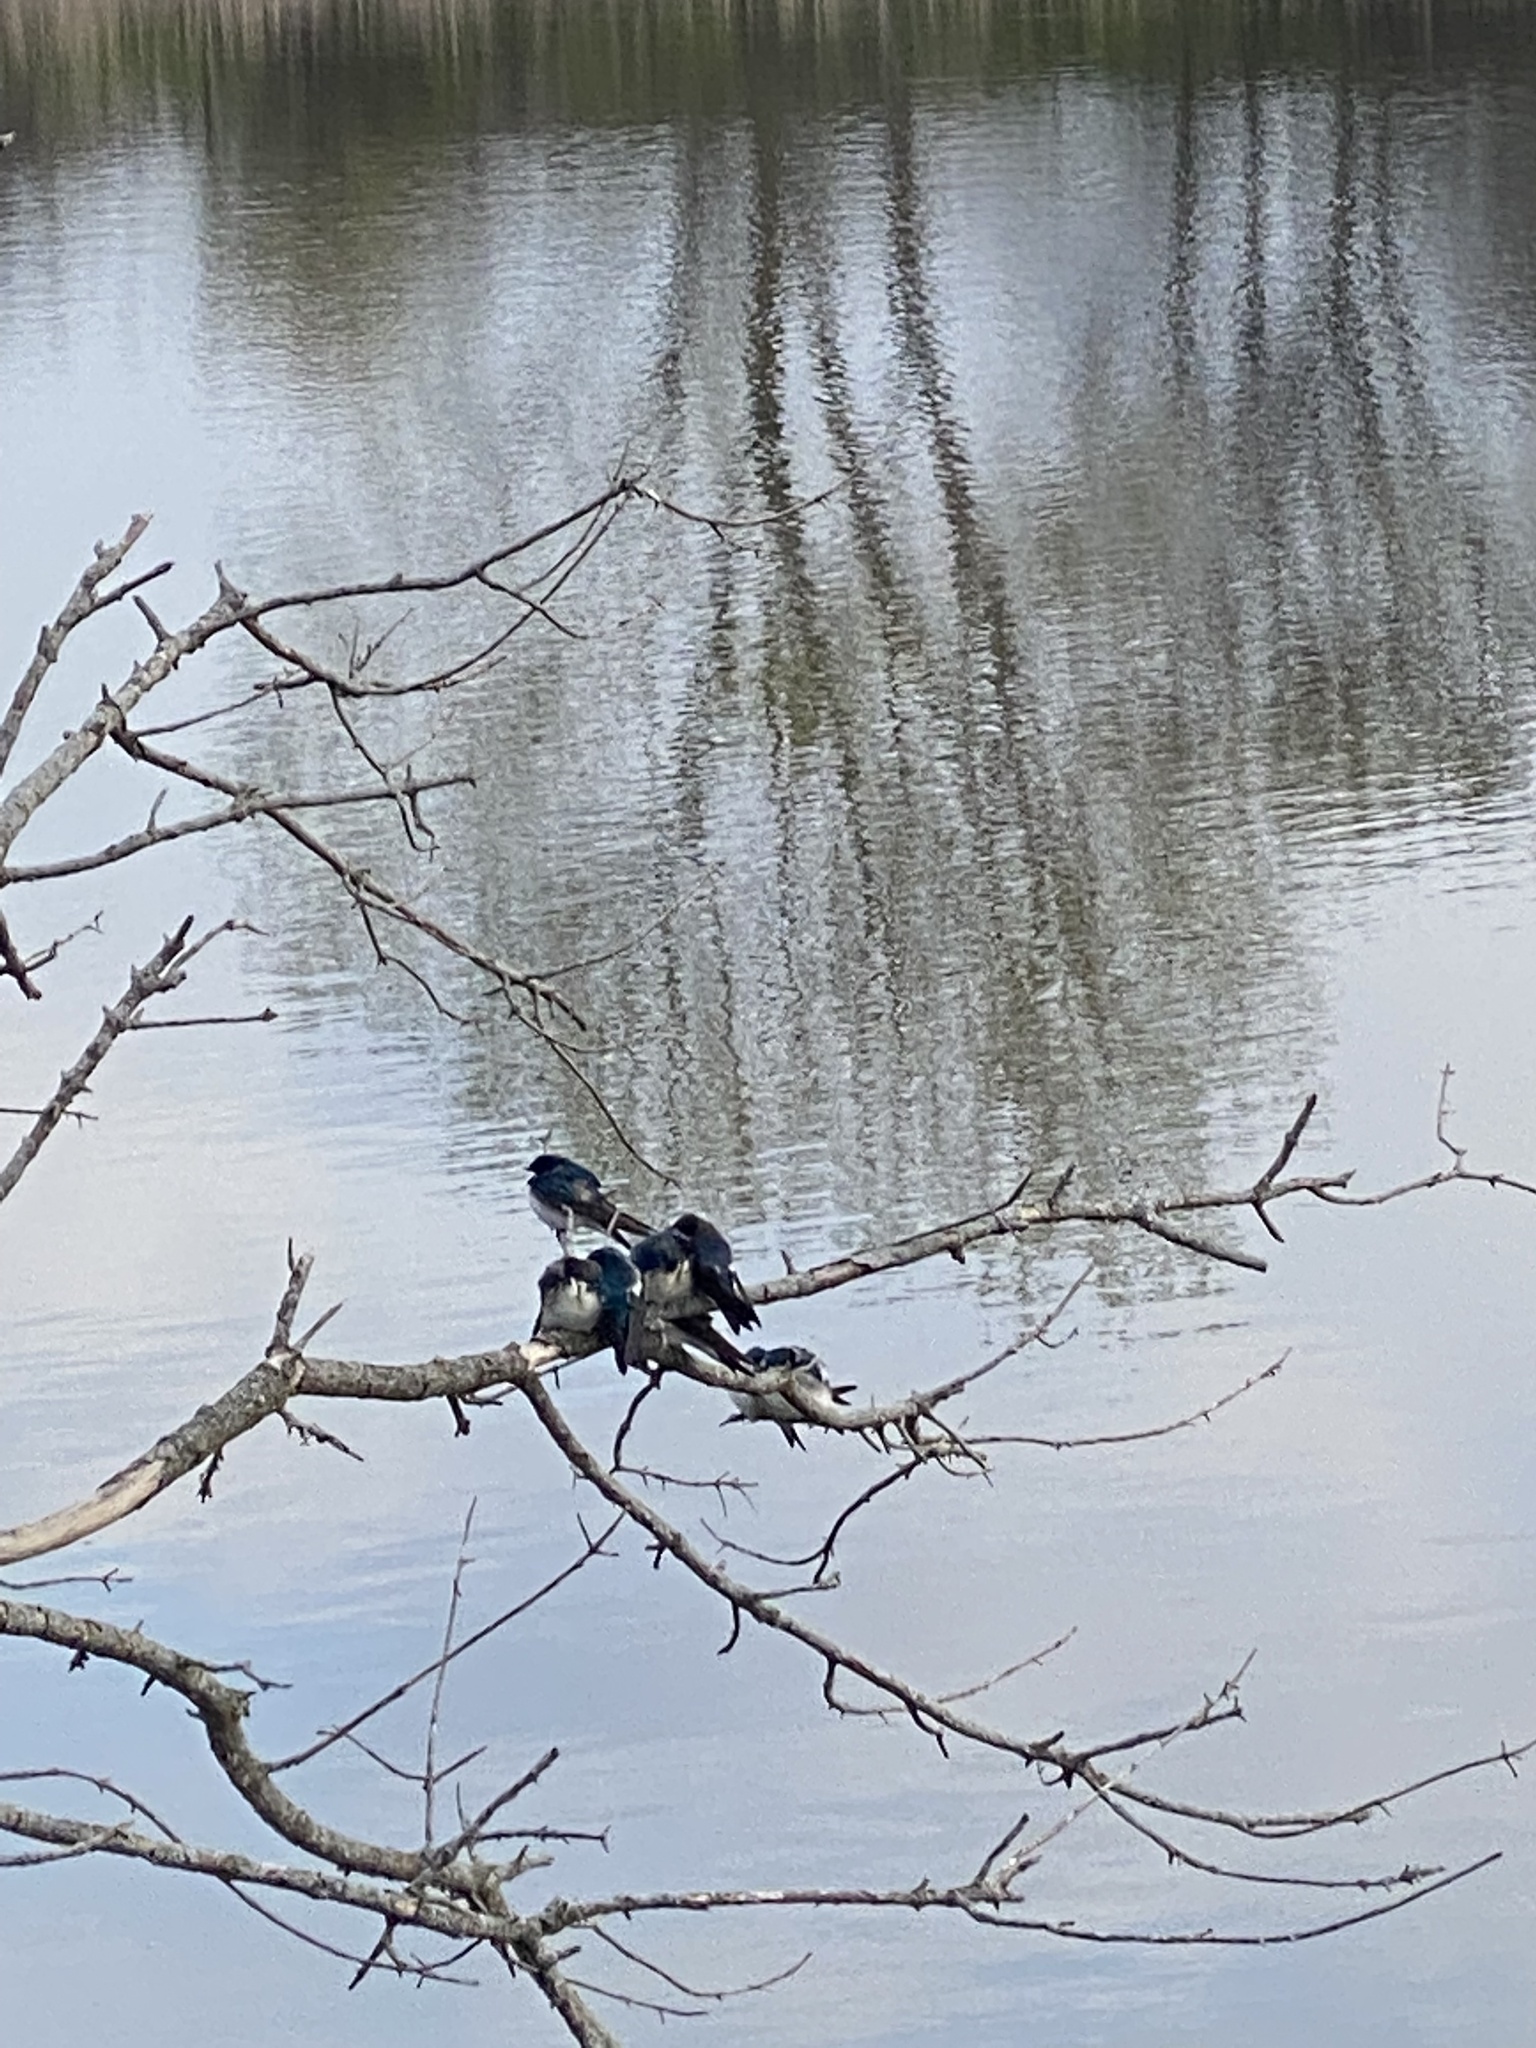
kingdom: Animalia
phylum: Chordata
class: Aves
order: Passeriformes
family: Hirundinidae
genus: Tachycineta
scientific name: Tachycineta bicolor
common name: Tree swallow
